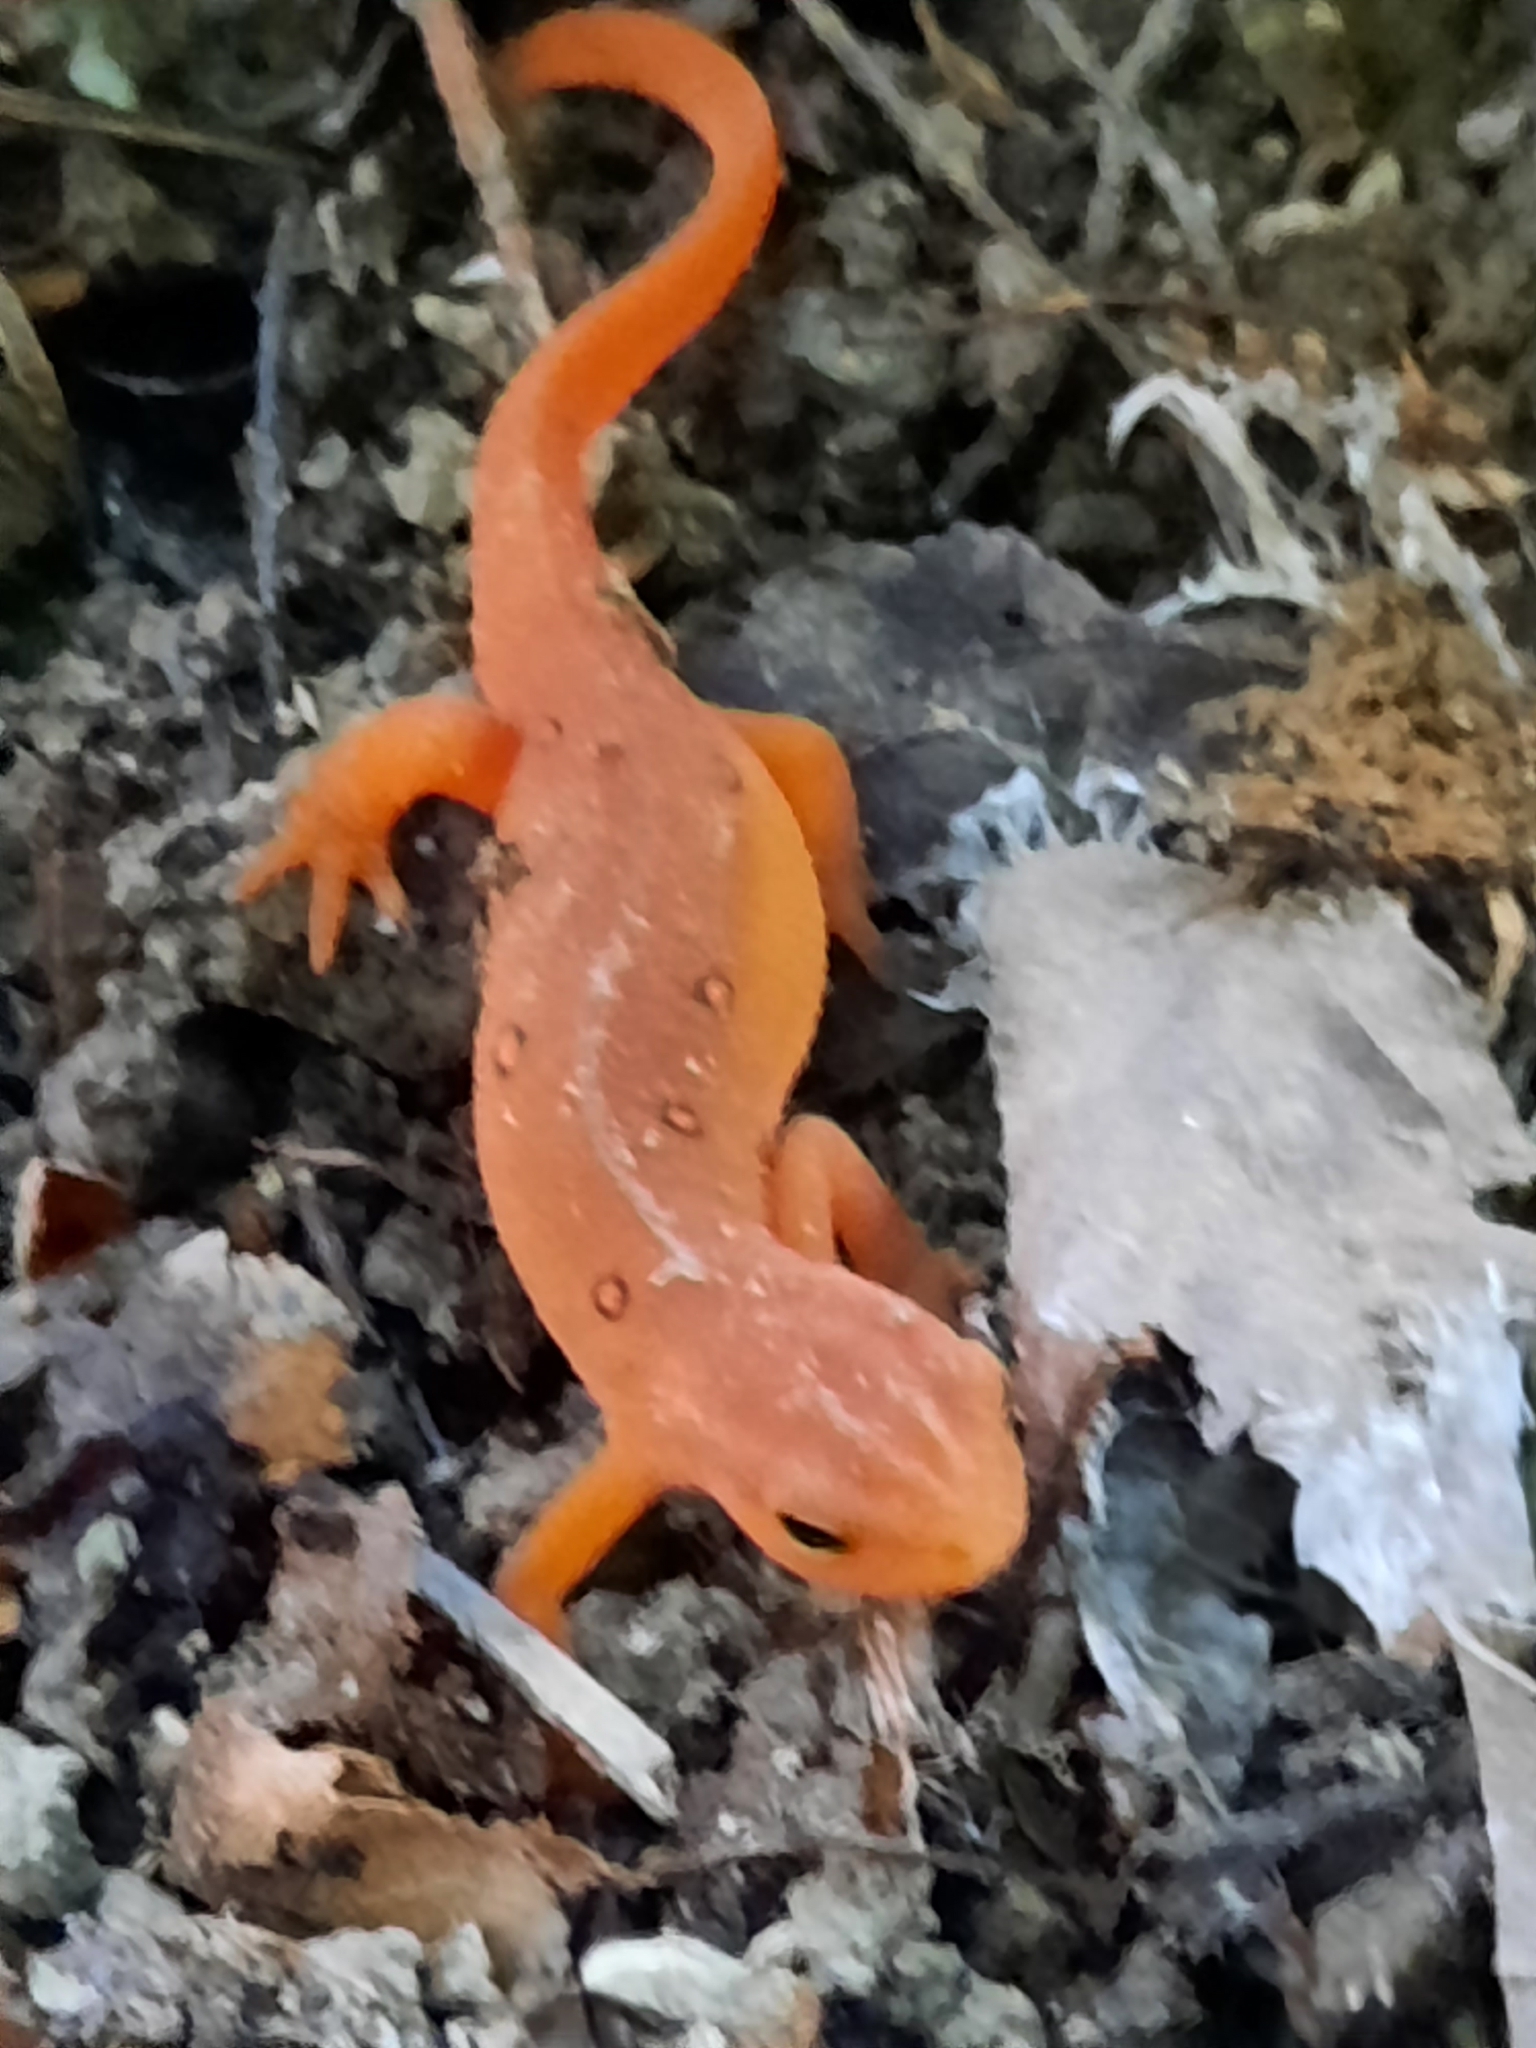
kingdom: Animalia
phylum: Chordata
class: Amphibia
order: Caudata
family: Salamandridae
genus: Notophthalmus
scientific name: Notophthalmus viridescens
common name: Eastern newt
